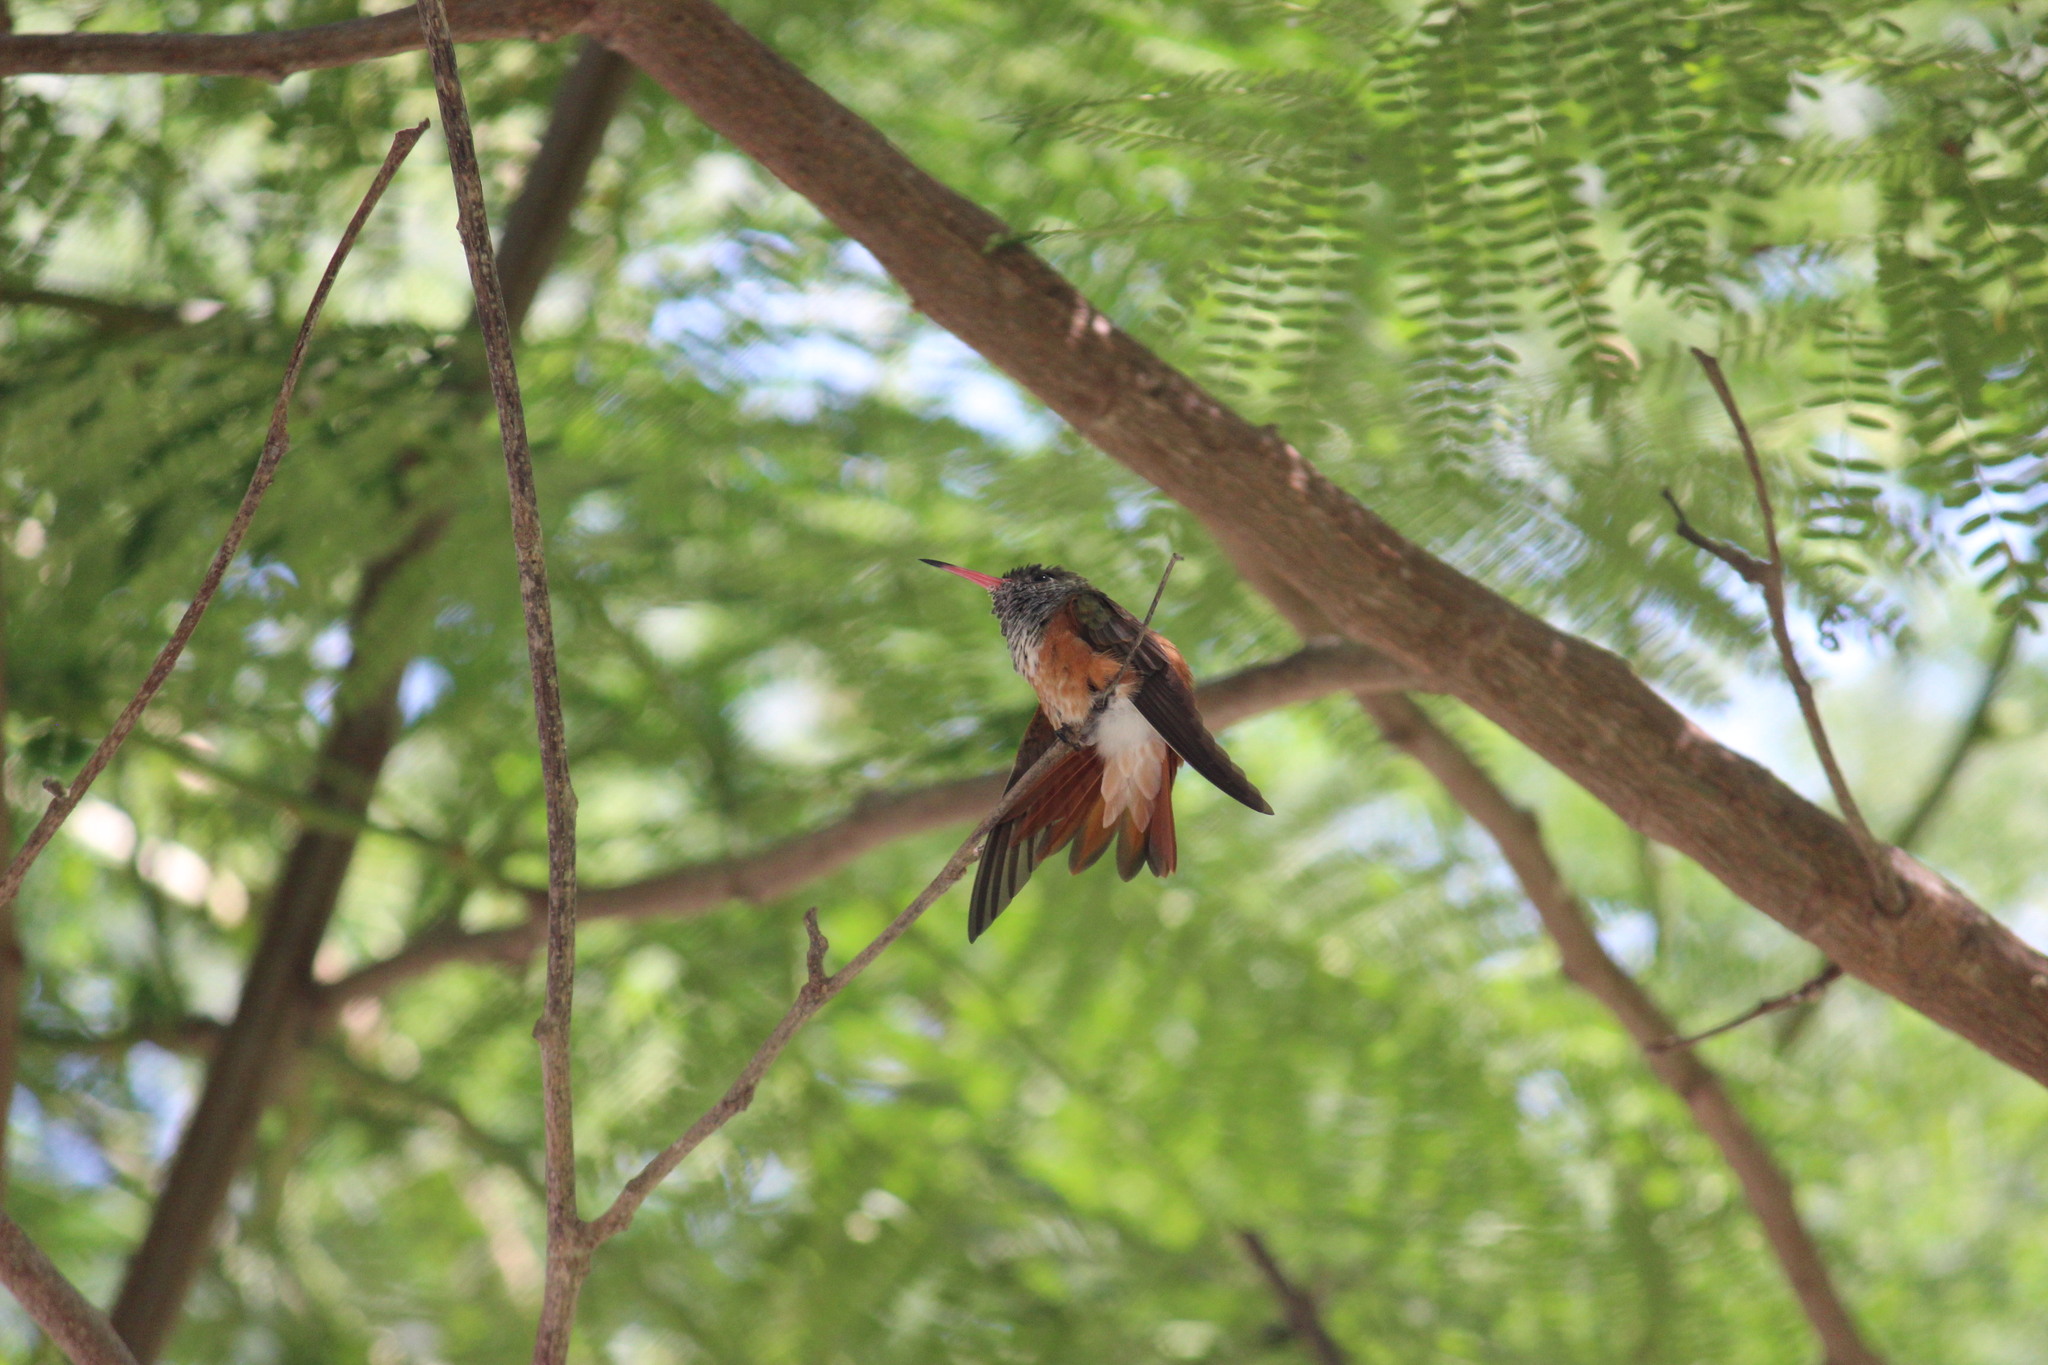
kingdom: Animalia
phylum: Chordata
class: Aves
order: Apodiformes
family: Trochilidae
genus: Amazilis
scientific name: Amazilis amazilia
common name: Amazilia hummingbird
